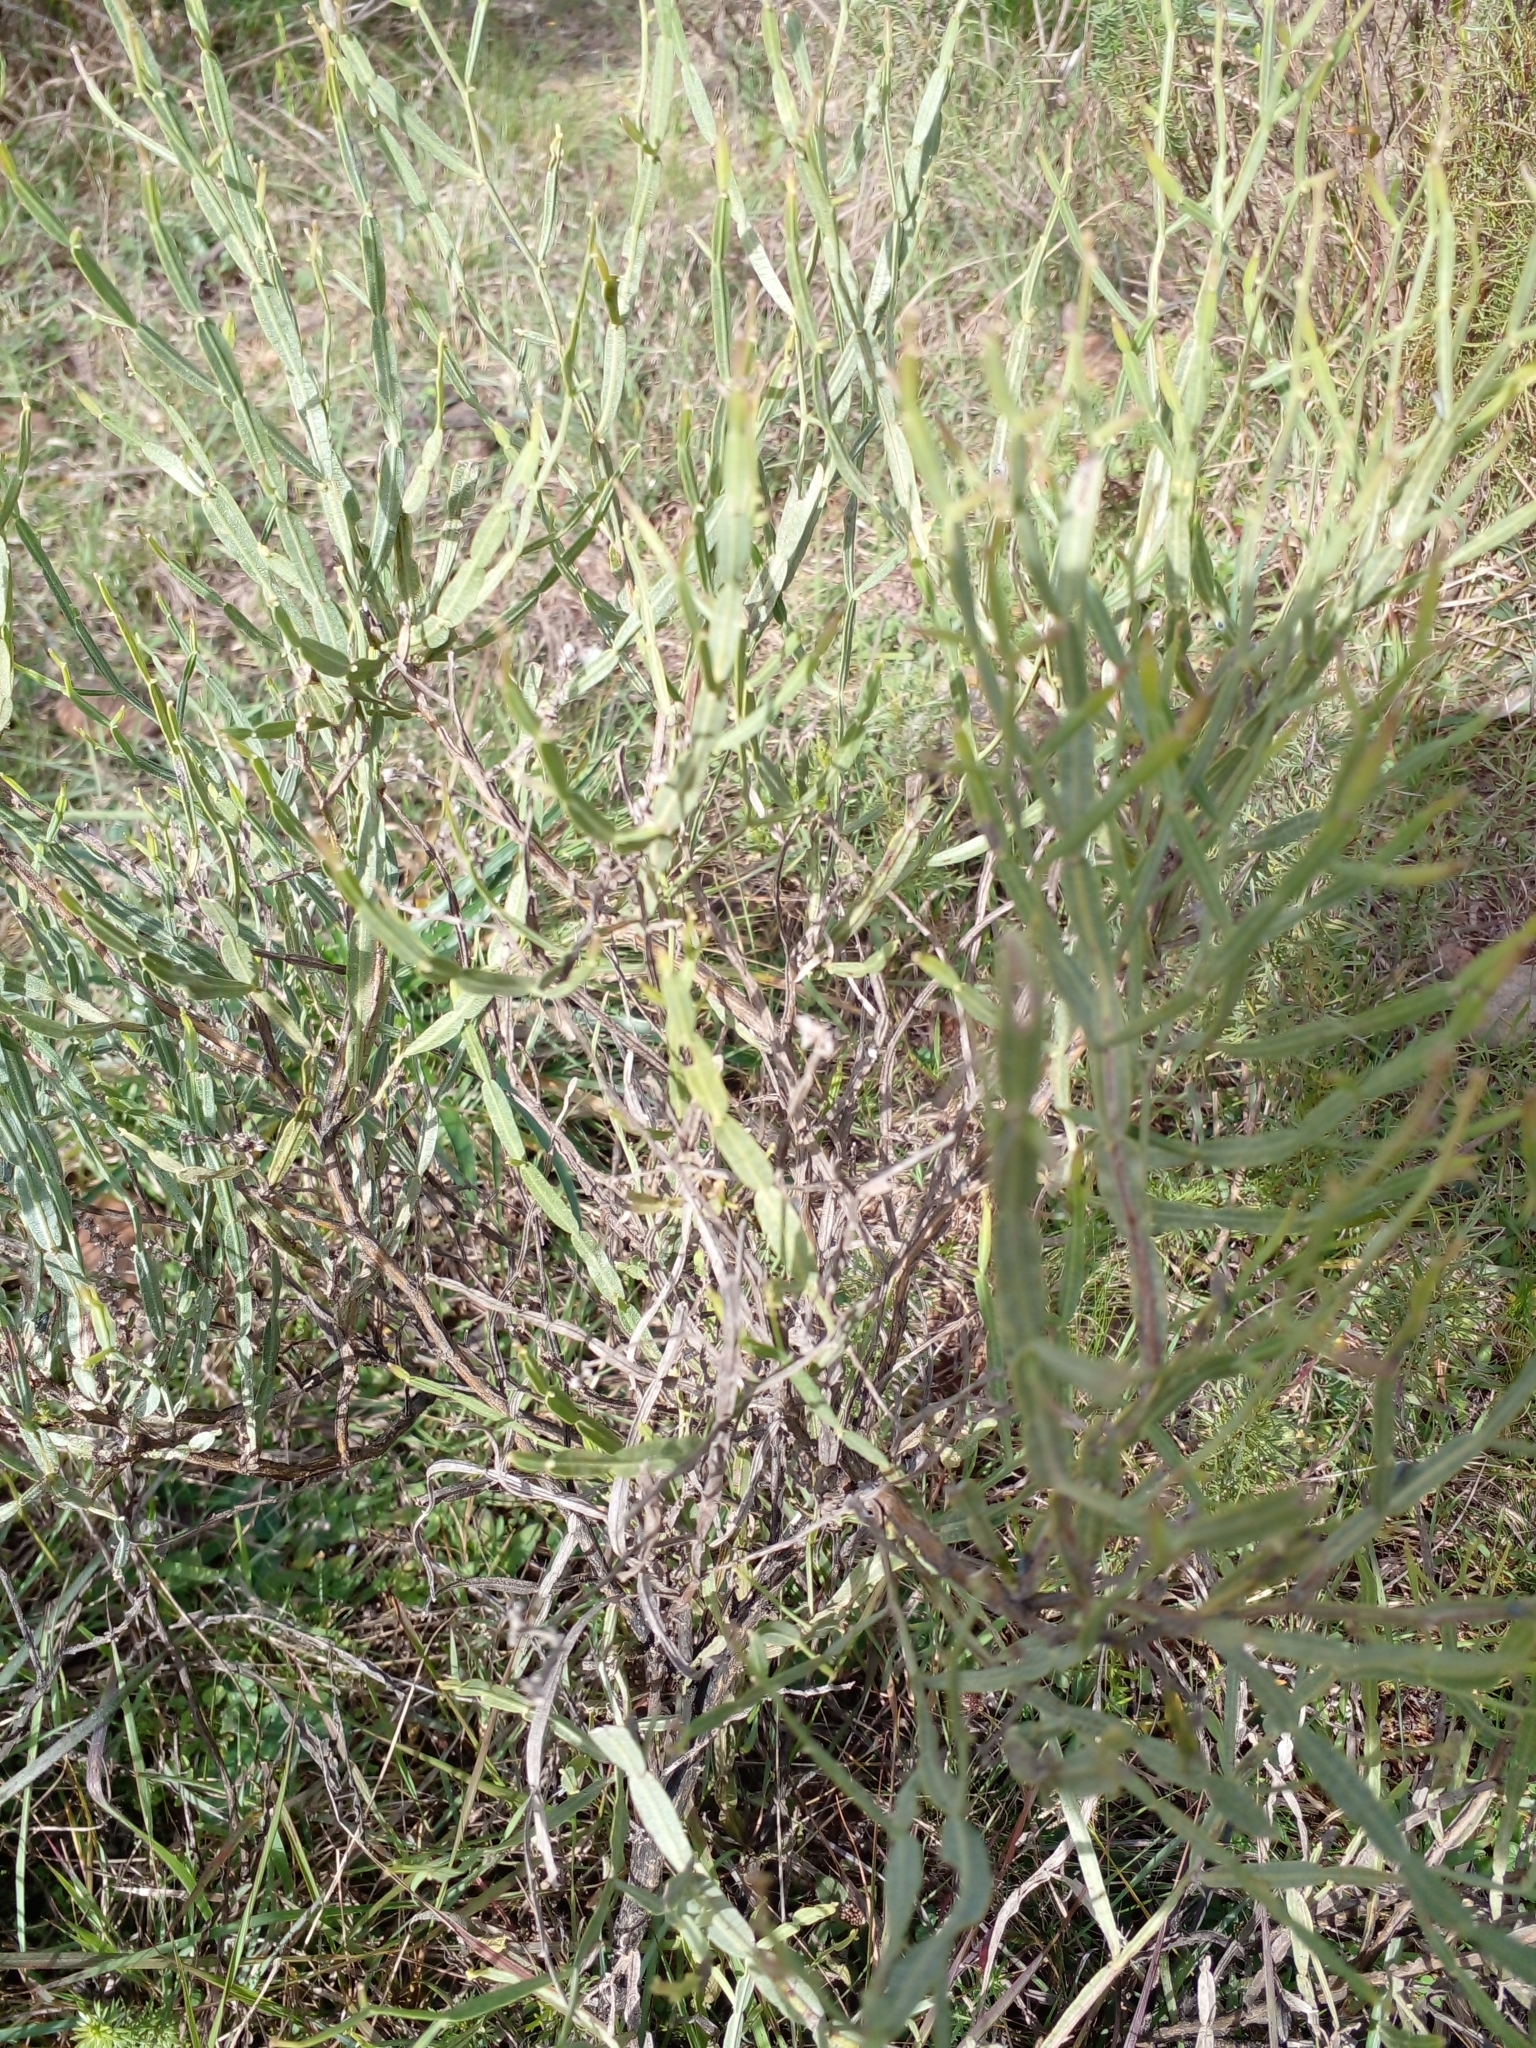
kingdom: Plantae
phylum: Tracheophyta
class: Magnoliopsida
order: Asterales
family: Asteraceae
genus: Baccharis
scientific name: Baccharis articulata
